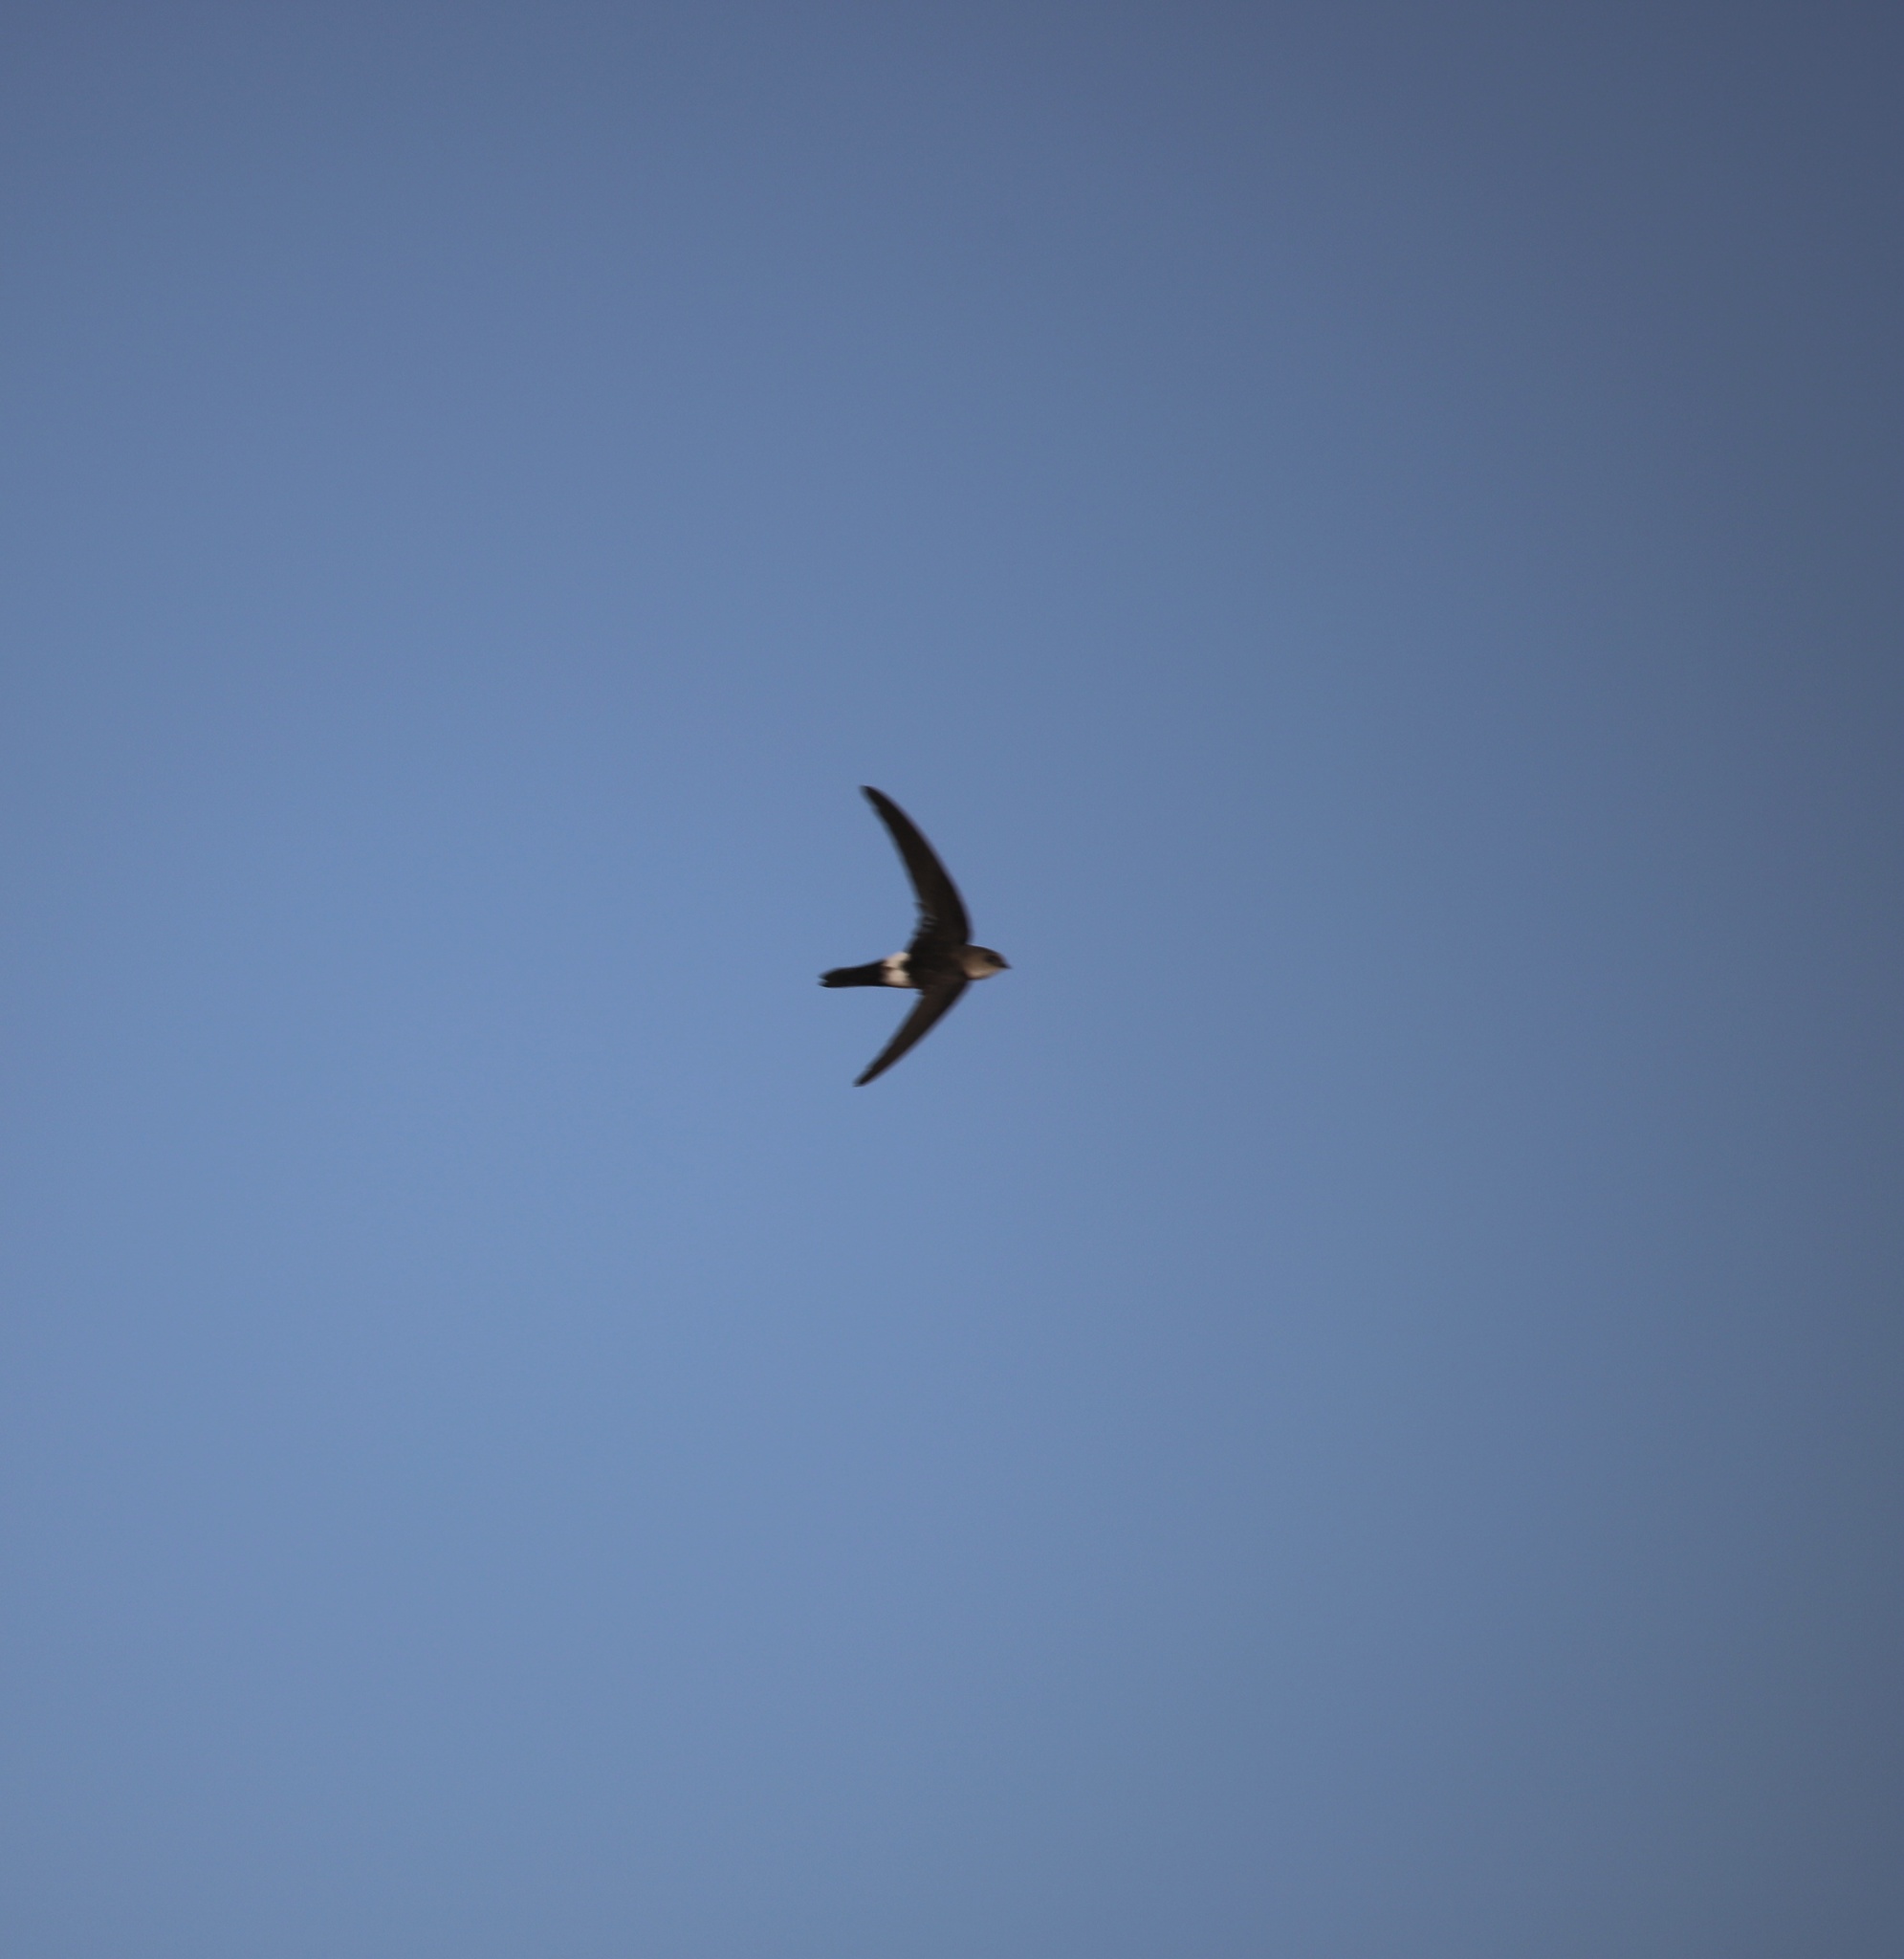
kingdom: Animalia
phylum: Chordata
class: Aves
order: Apodiformes
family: Apodidae
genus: Tachornis
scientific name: Tachornis phoenicobia
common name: Antillean palm swift
